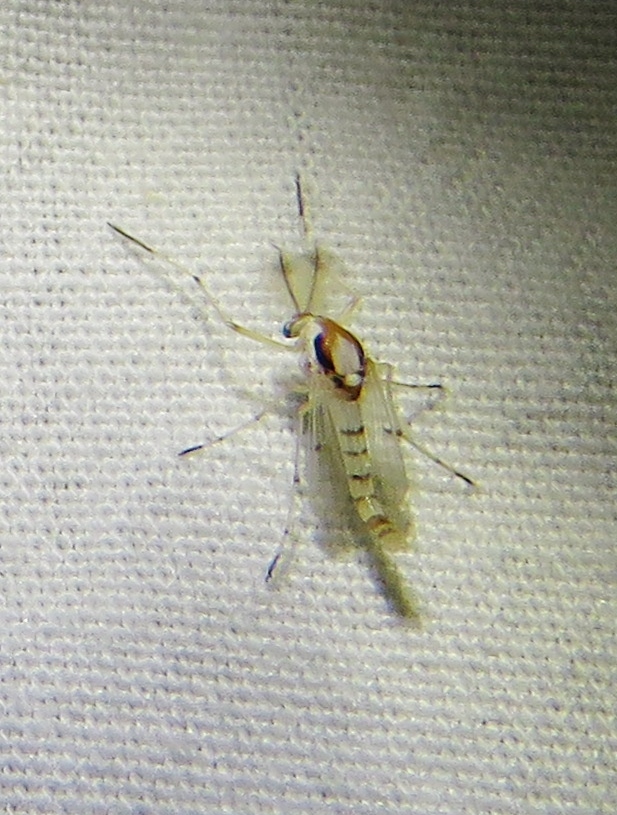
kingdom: Animalia
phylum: Arthropoda
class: Insecta
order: Diptera
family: Chironomidae
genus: Coelotanypus
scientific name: Coelotanypus concinnus
